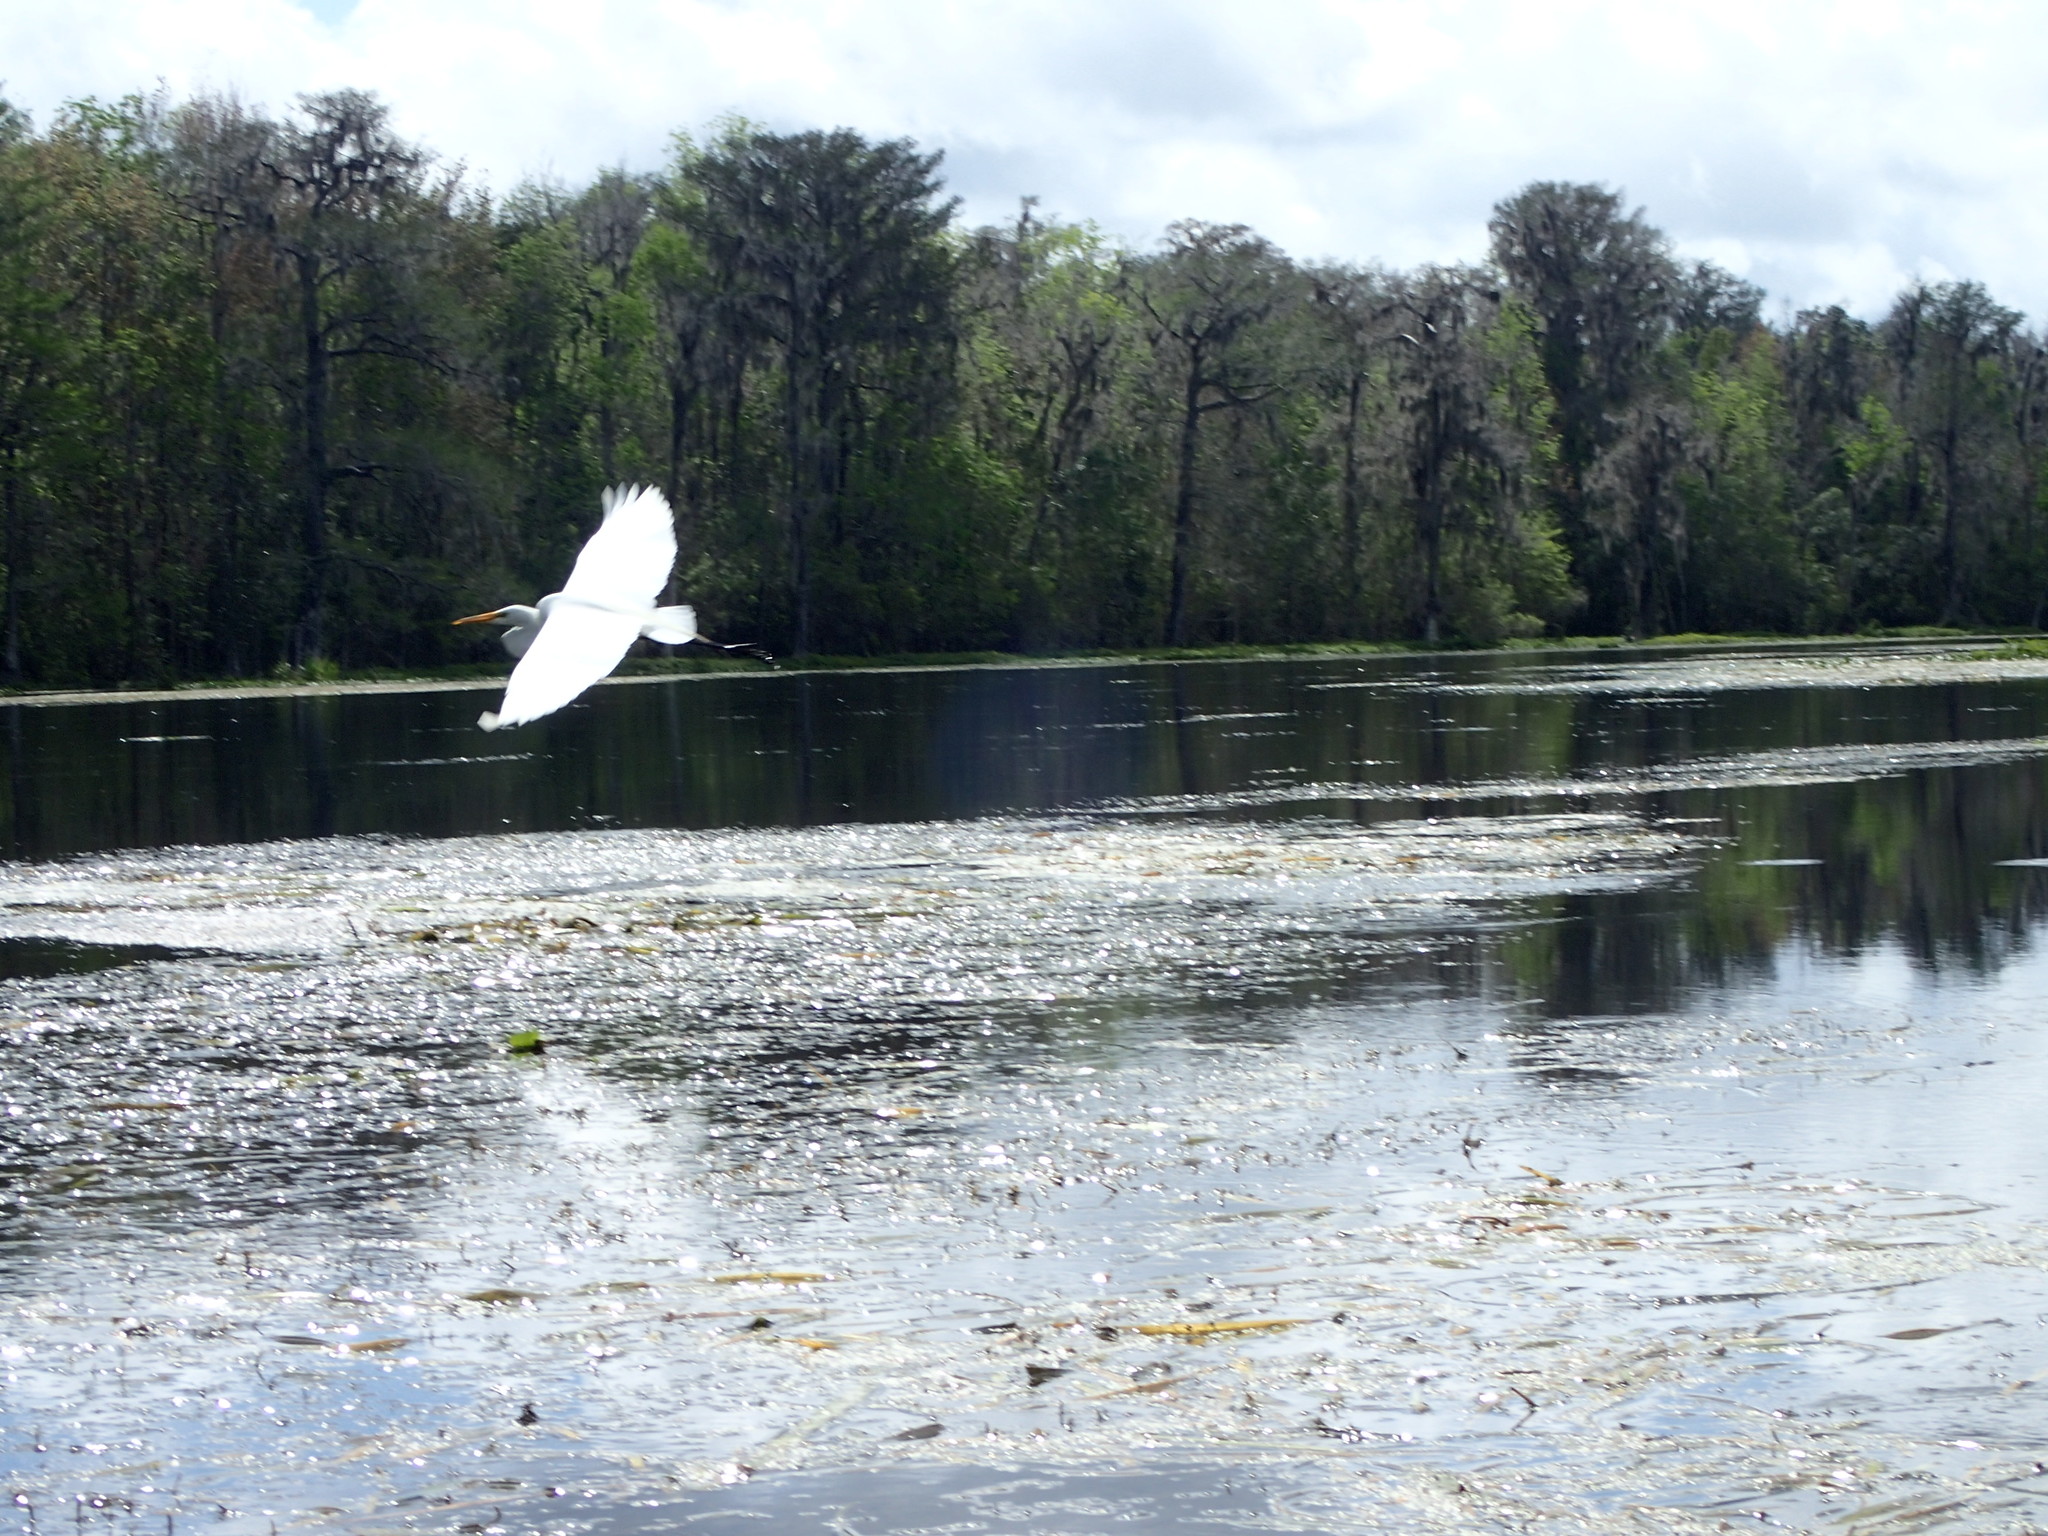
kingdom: Animalia
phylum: Chordata
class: Aves
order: Pelecaniformes
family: Ardeidae
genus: Ardea
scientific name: Ardea alba
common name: Great egret
